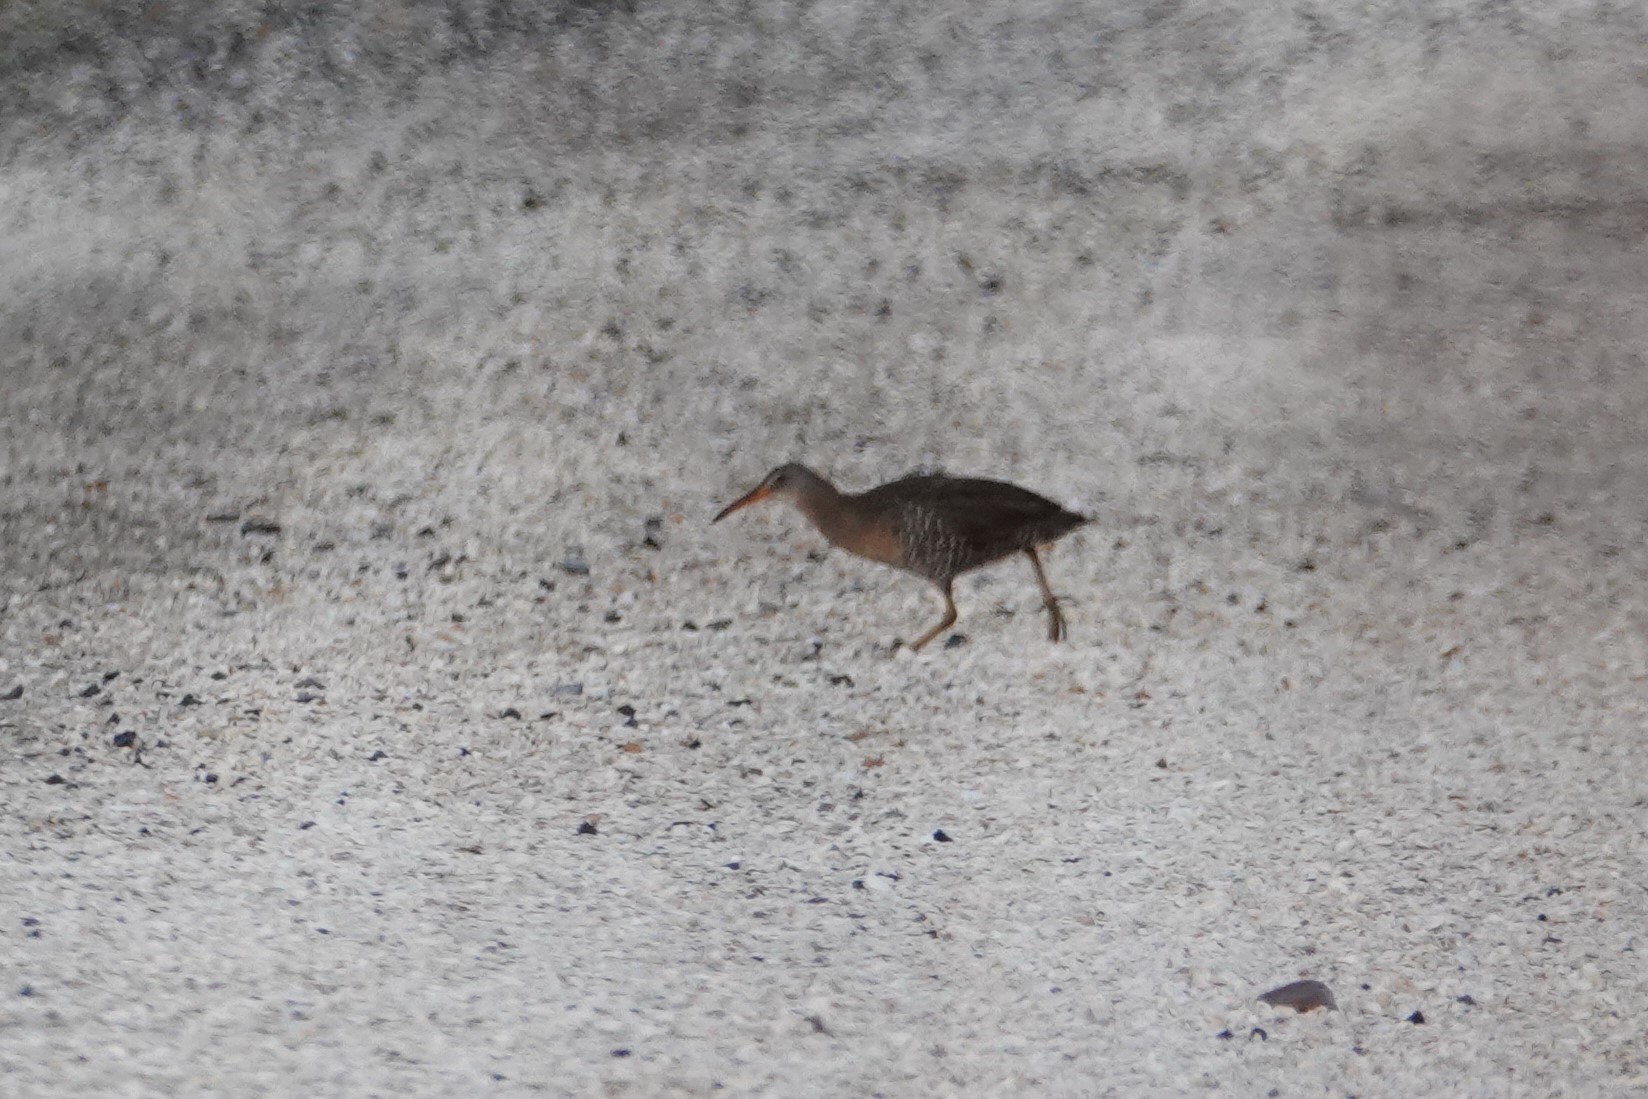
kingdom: Animalia
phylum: Chordata
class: Aves
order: Gruiformes
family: Rallidae
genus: Rallus
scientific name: Rallus crepitans
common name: Clapper rail
